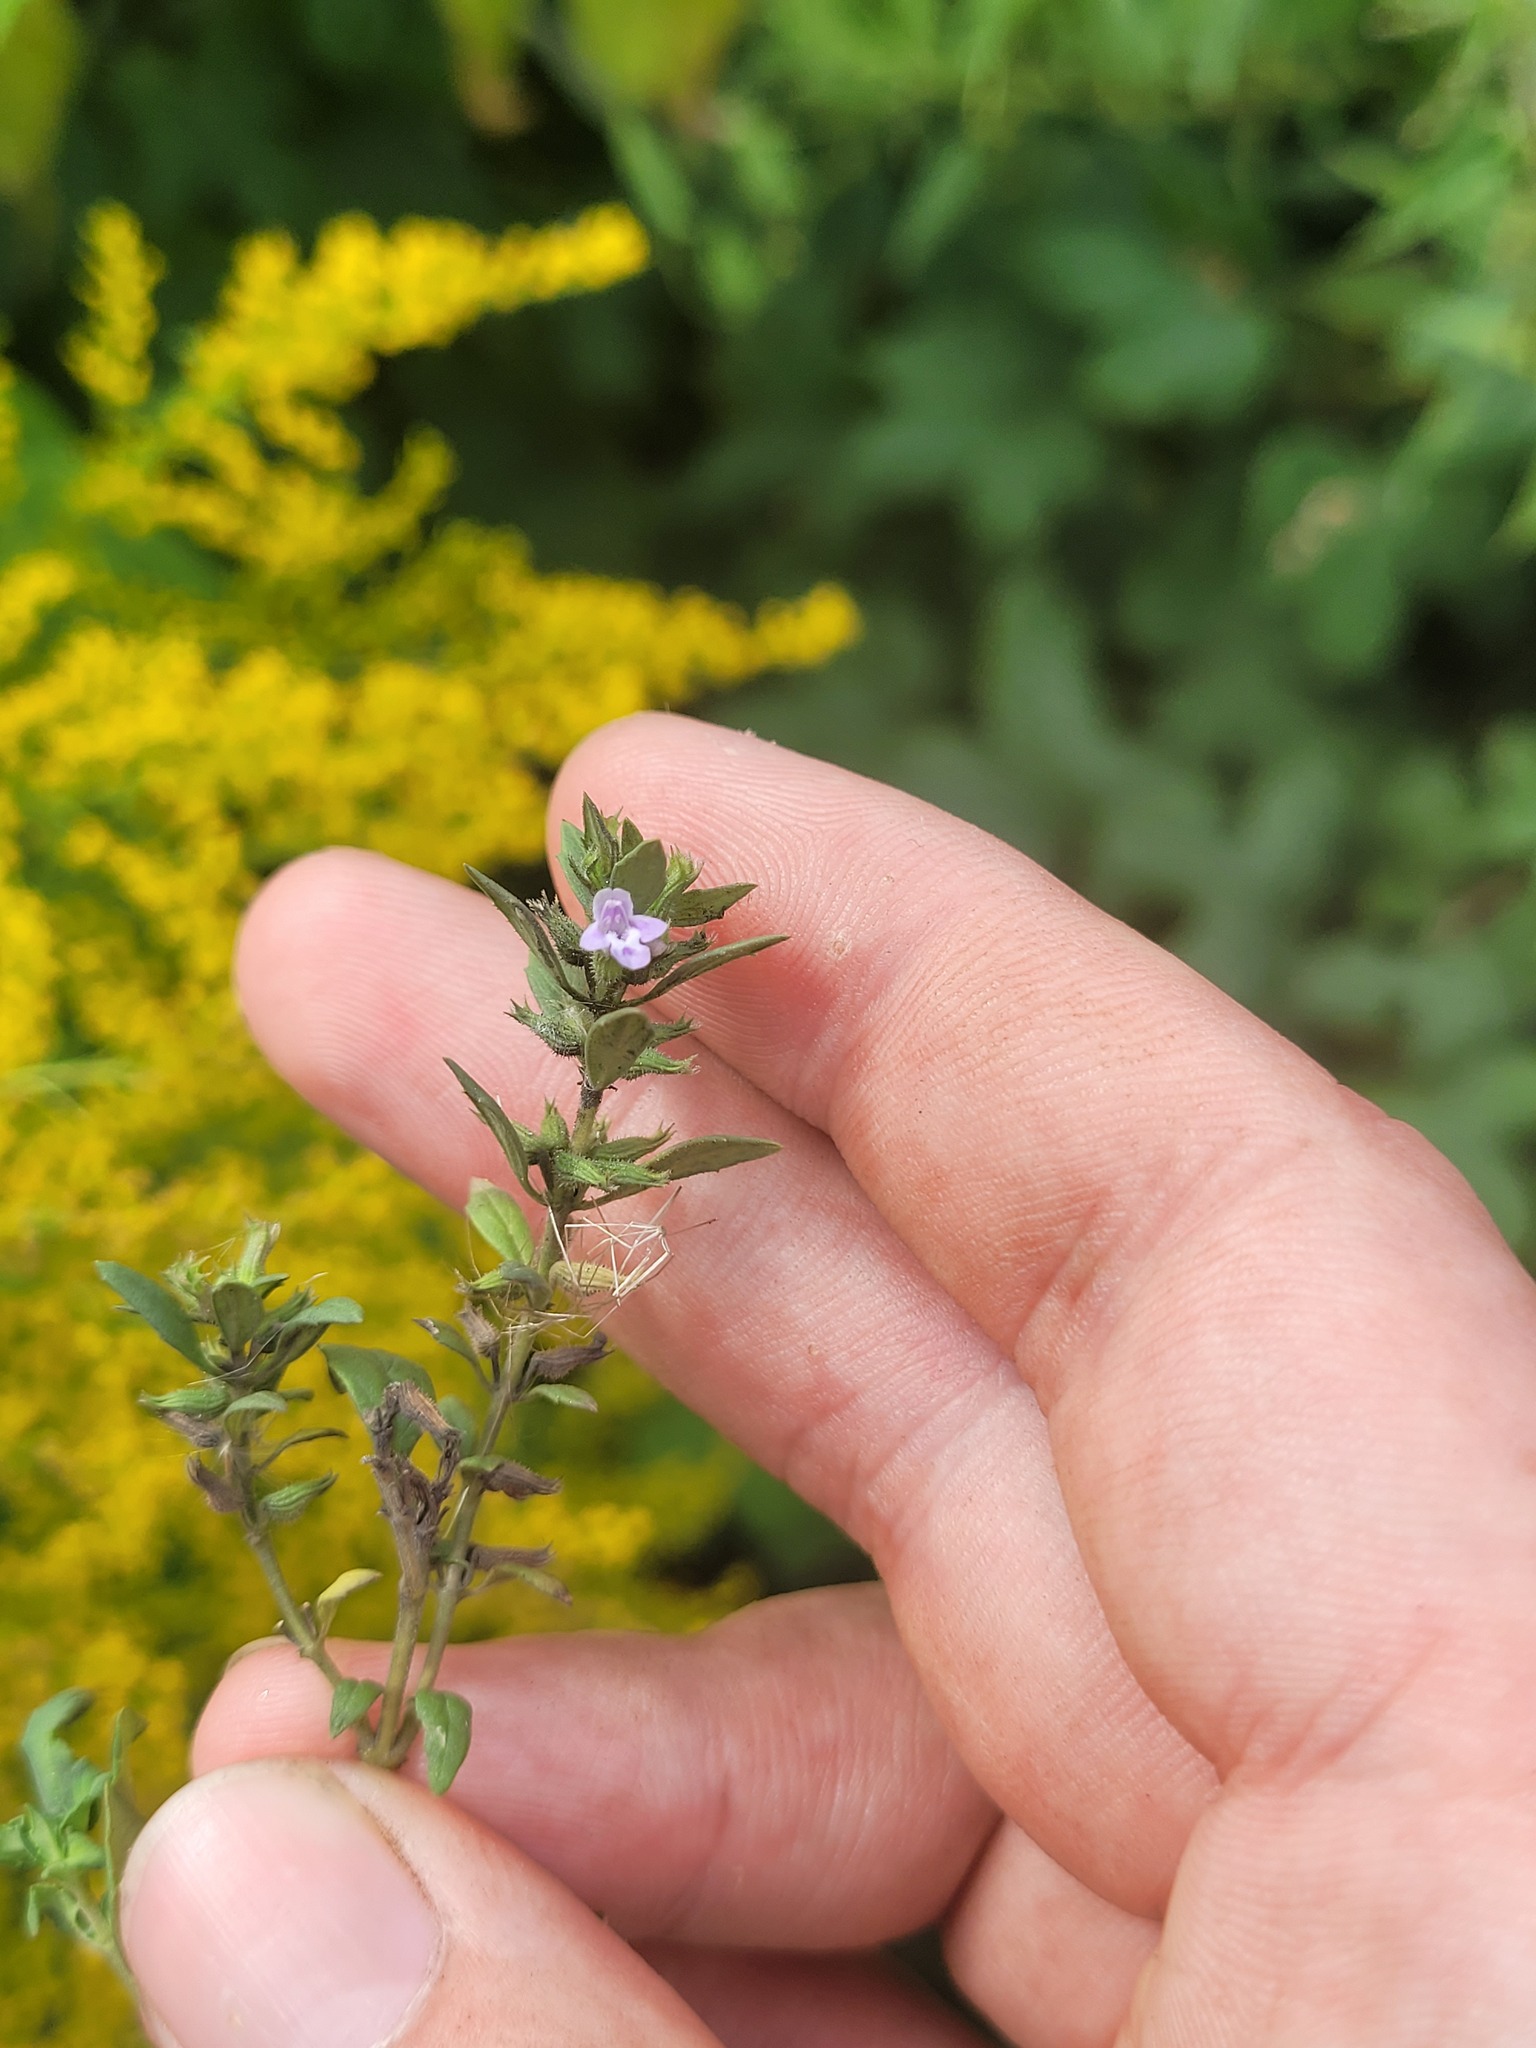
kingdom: Plantae
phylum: Tracheophyta
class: Magnoliopsida
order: Lamiales
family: Lamiaceae
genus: Clinopodium
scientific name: Clinopodium acinos
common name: Basil thyme
